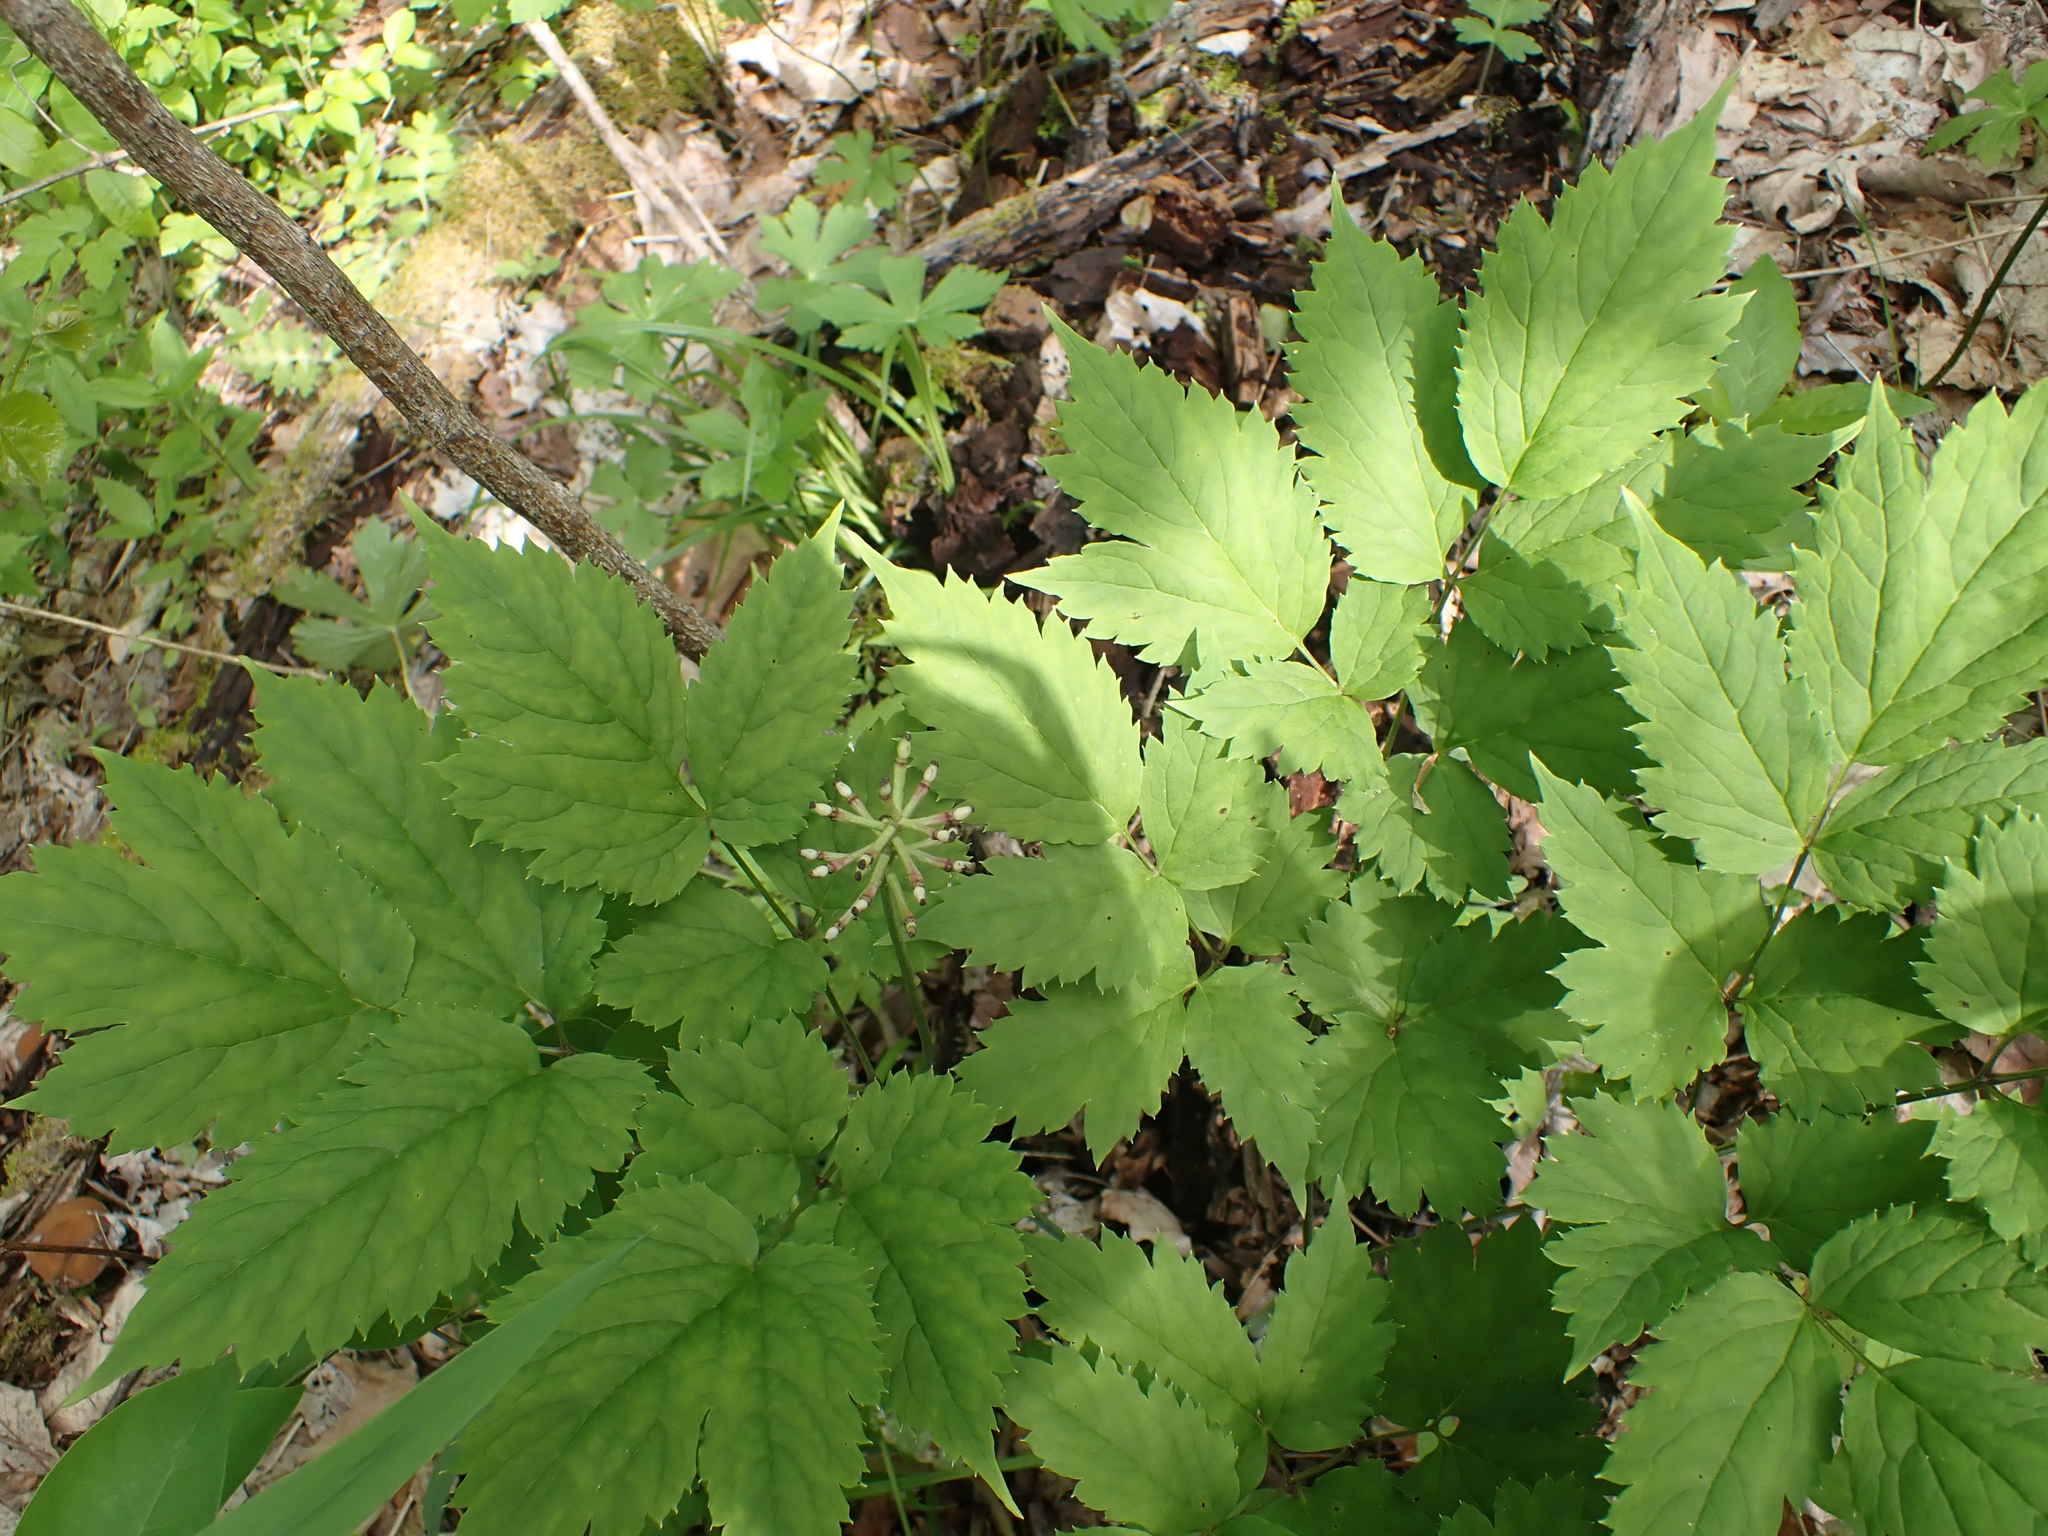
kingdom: Plantae
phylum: Tracheophyta
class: Magnoliopsida
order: Ranunculales
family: Ranunculaceae
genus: Actaea
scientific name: Actaea pachypoda
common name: Doll's-eyes
